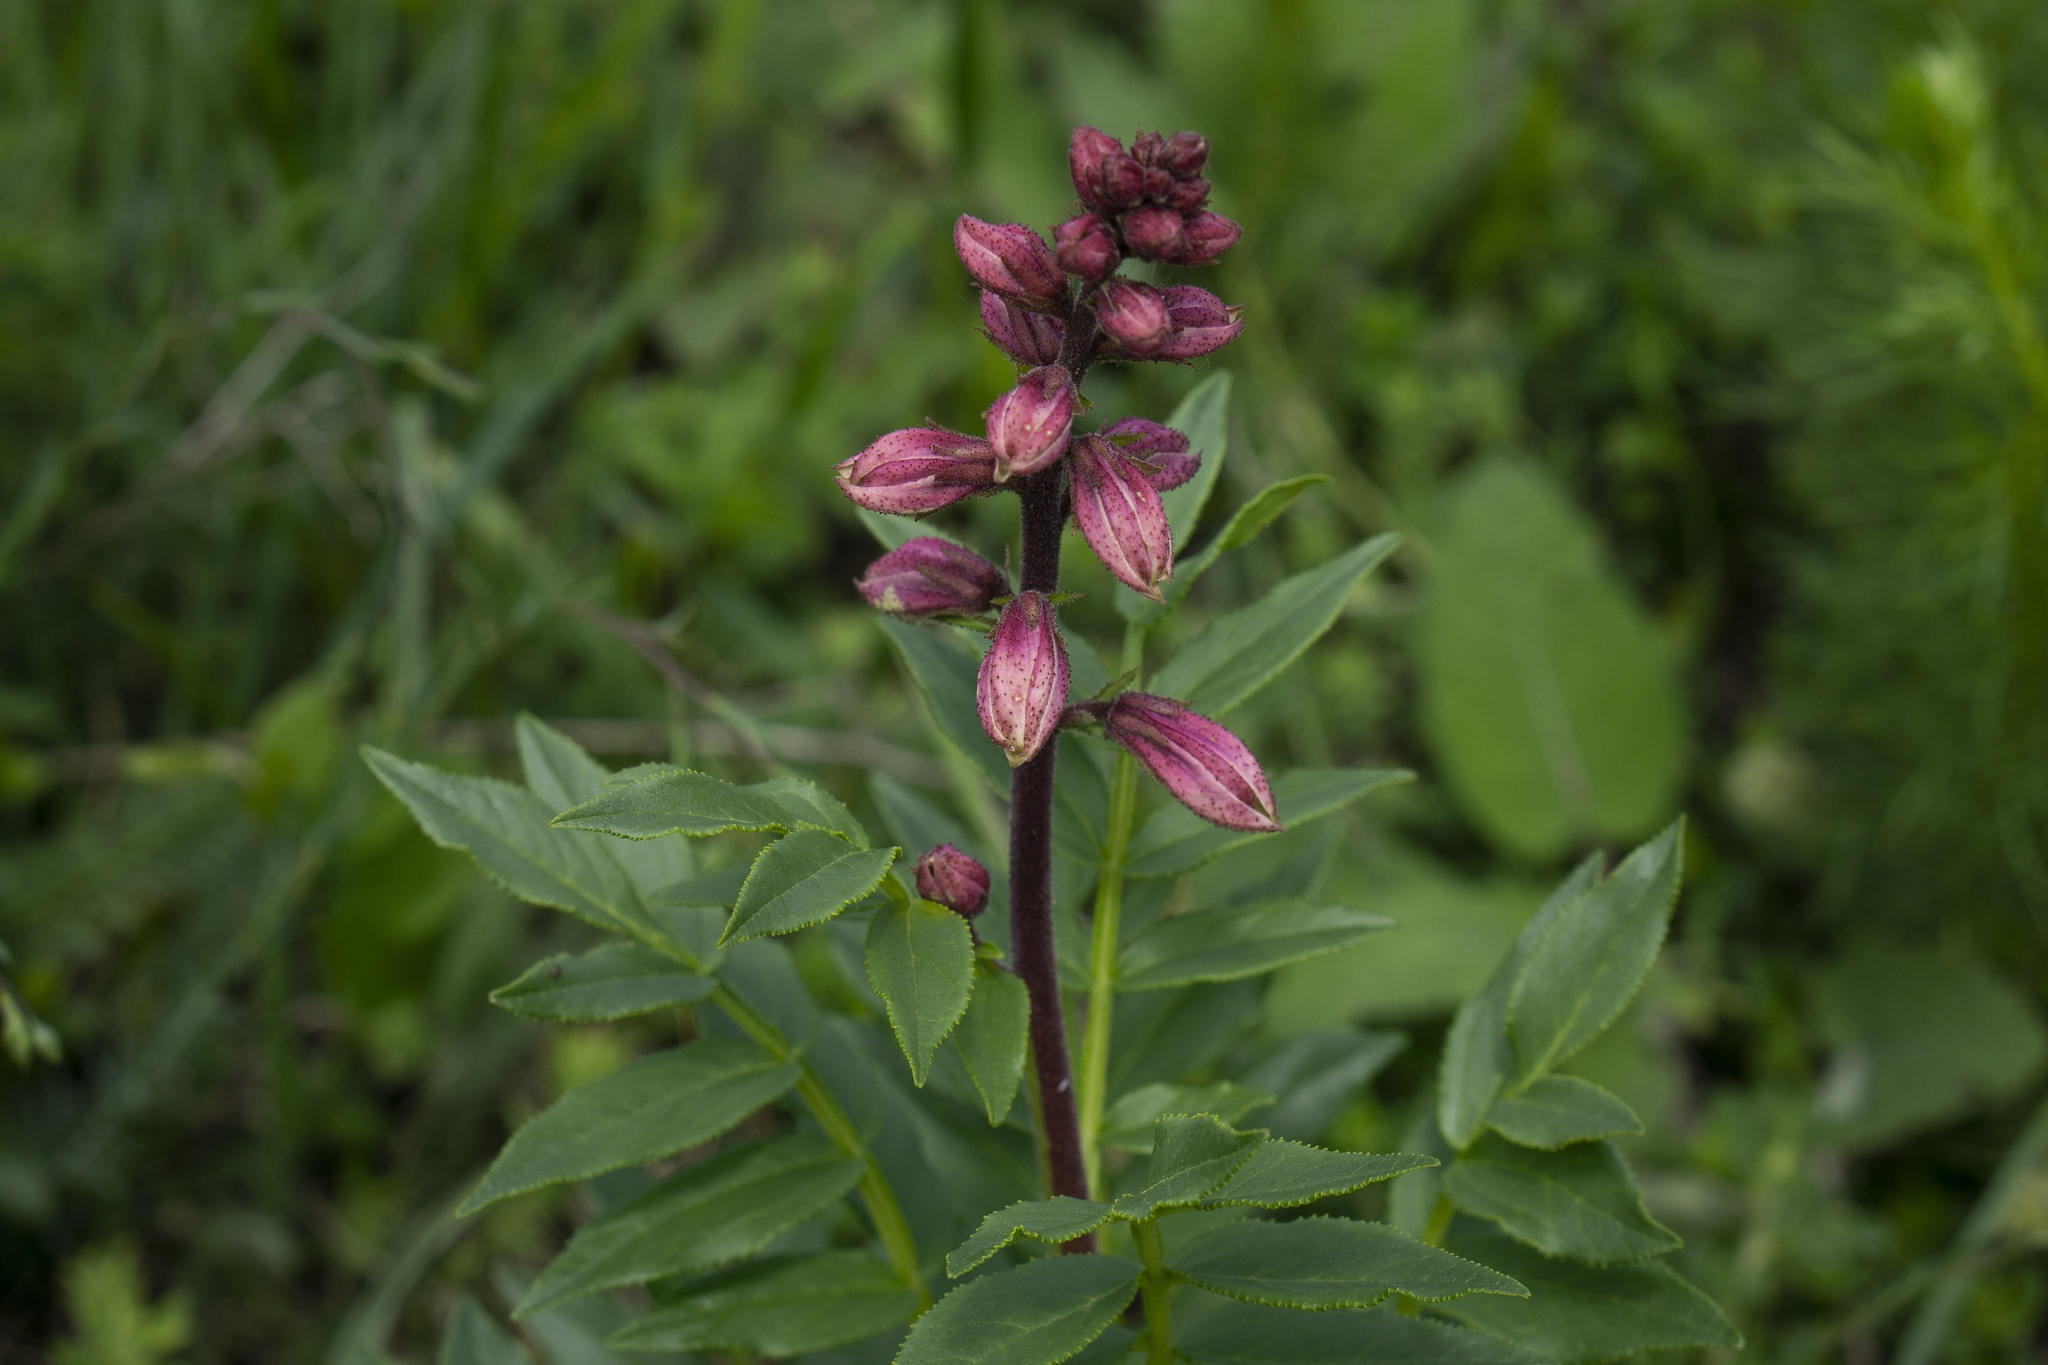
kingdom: Plantae
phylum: Tracheophyta
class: Magnoliopsida
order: Sapindales
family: Rutaceae
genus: Dictamnus
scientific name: Dictamnus albus
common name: Gasplant
